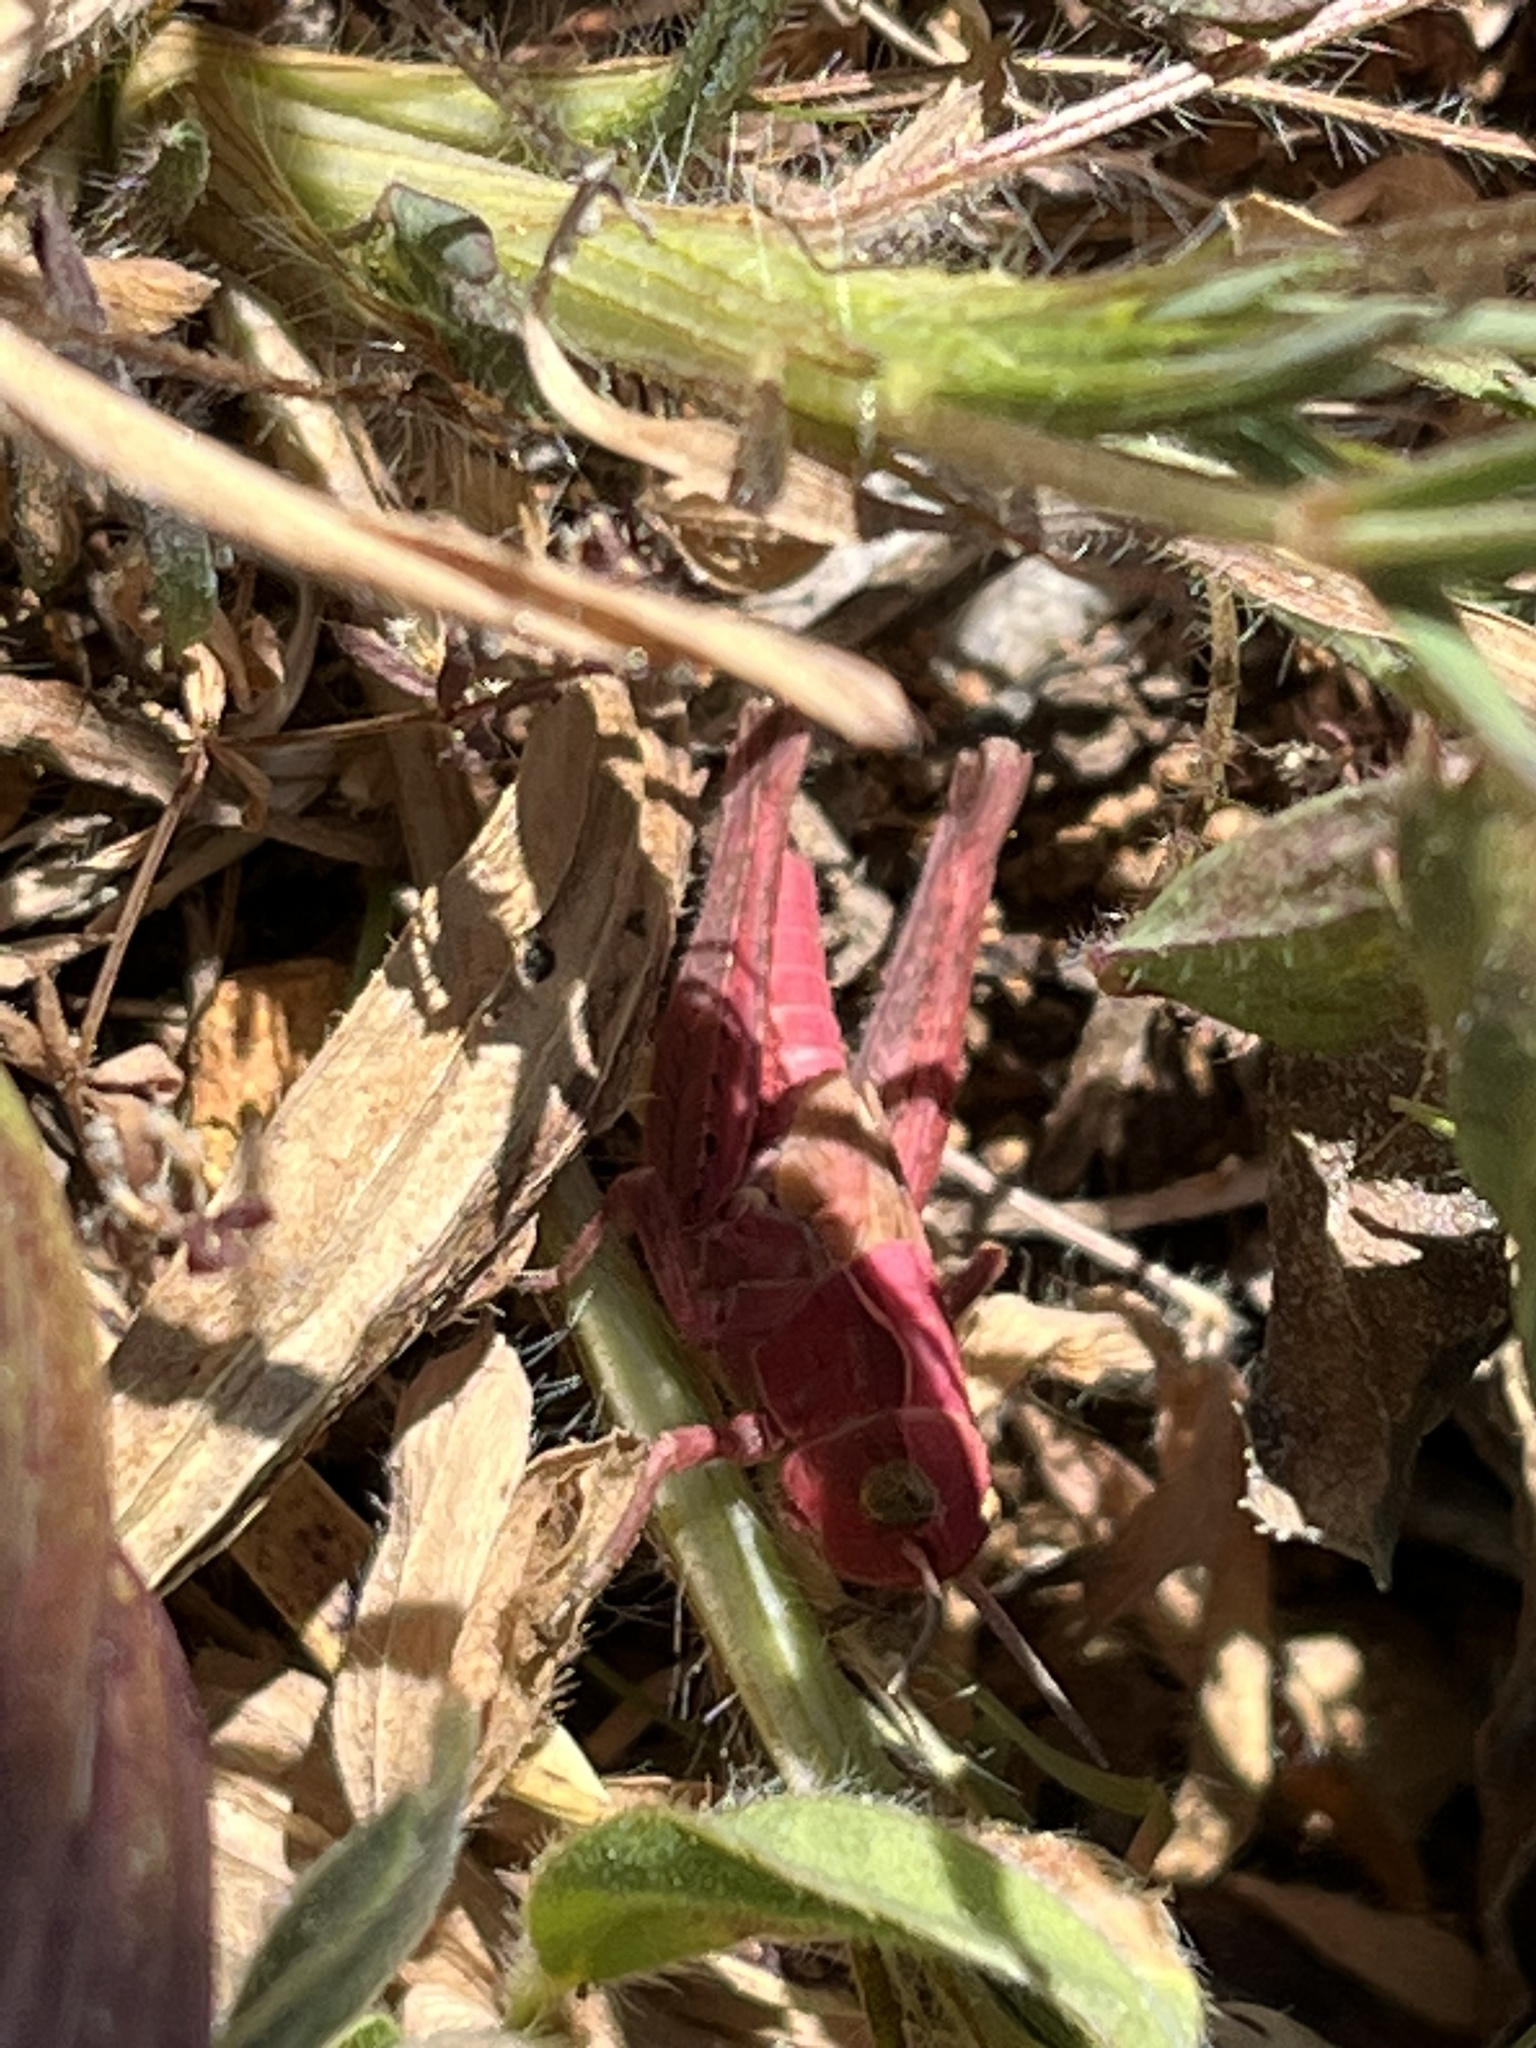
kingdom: Animalia
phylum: Arthropoda
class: Insecta
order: Orthoptera
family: Acrididae
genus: Chorthippus
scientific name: Chorthippus apicalis
